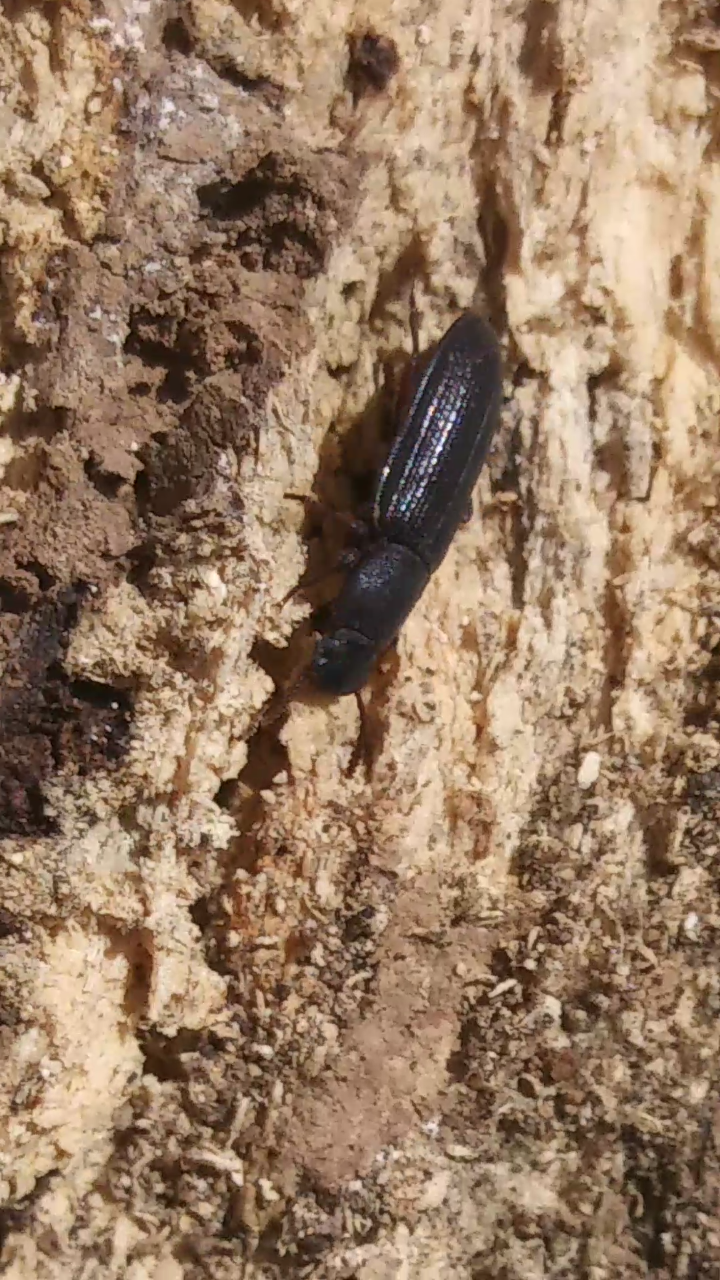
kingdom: Animalia
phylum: Arthropoda
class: Insecta
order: Coleoptera
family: Tenebrionidae
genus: Idiobates
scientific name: Idiobates castaneus
